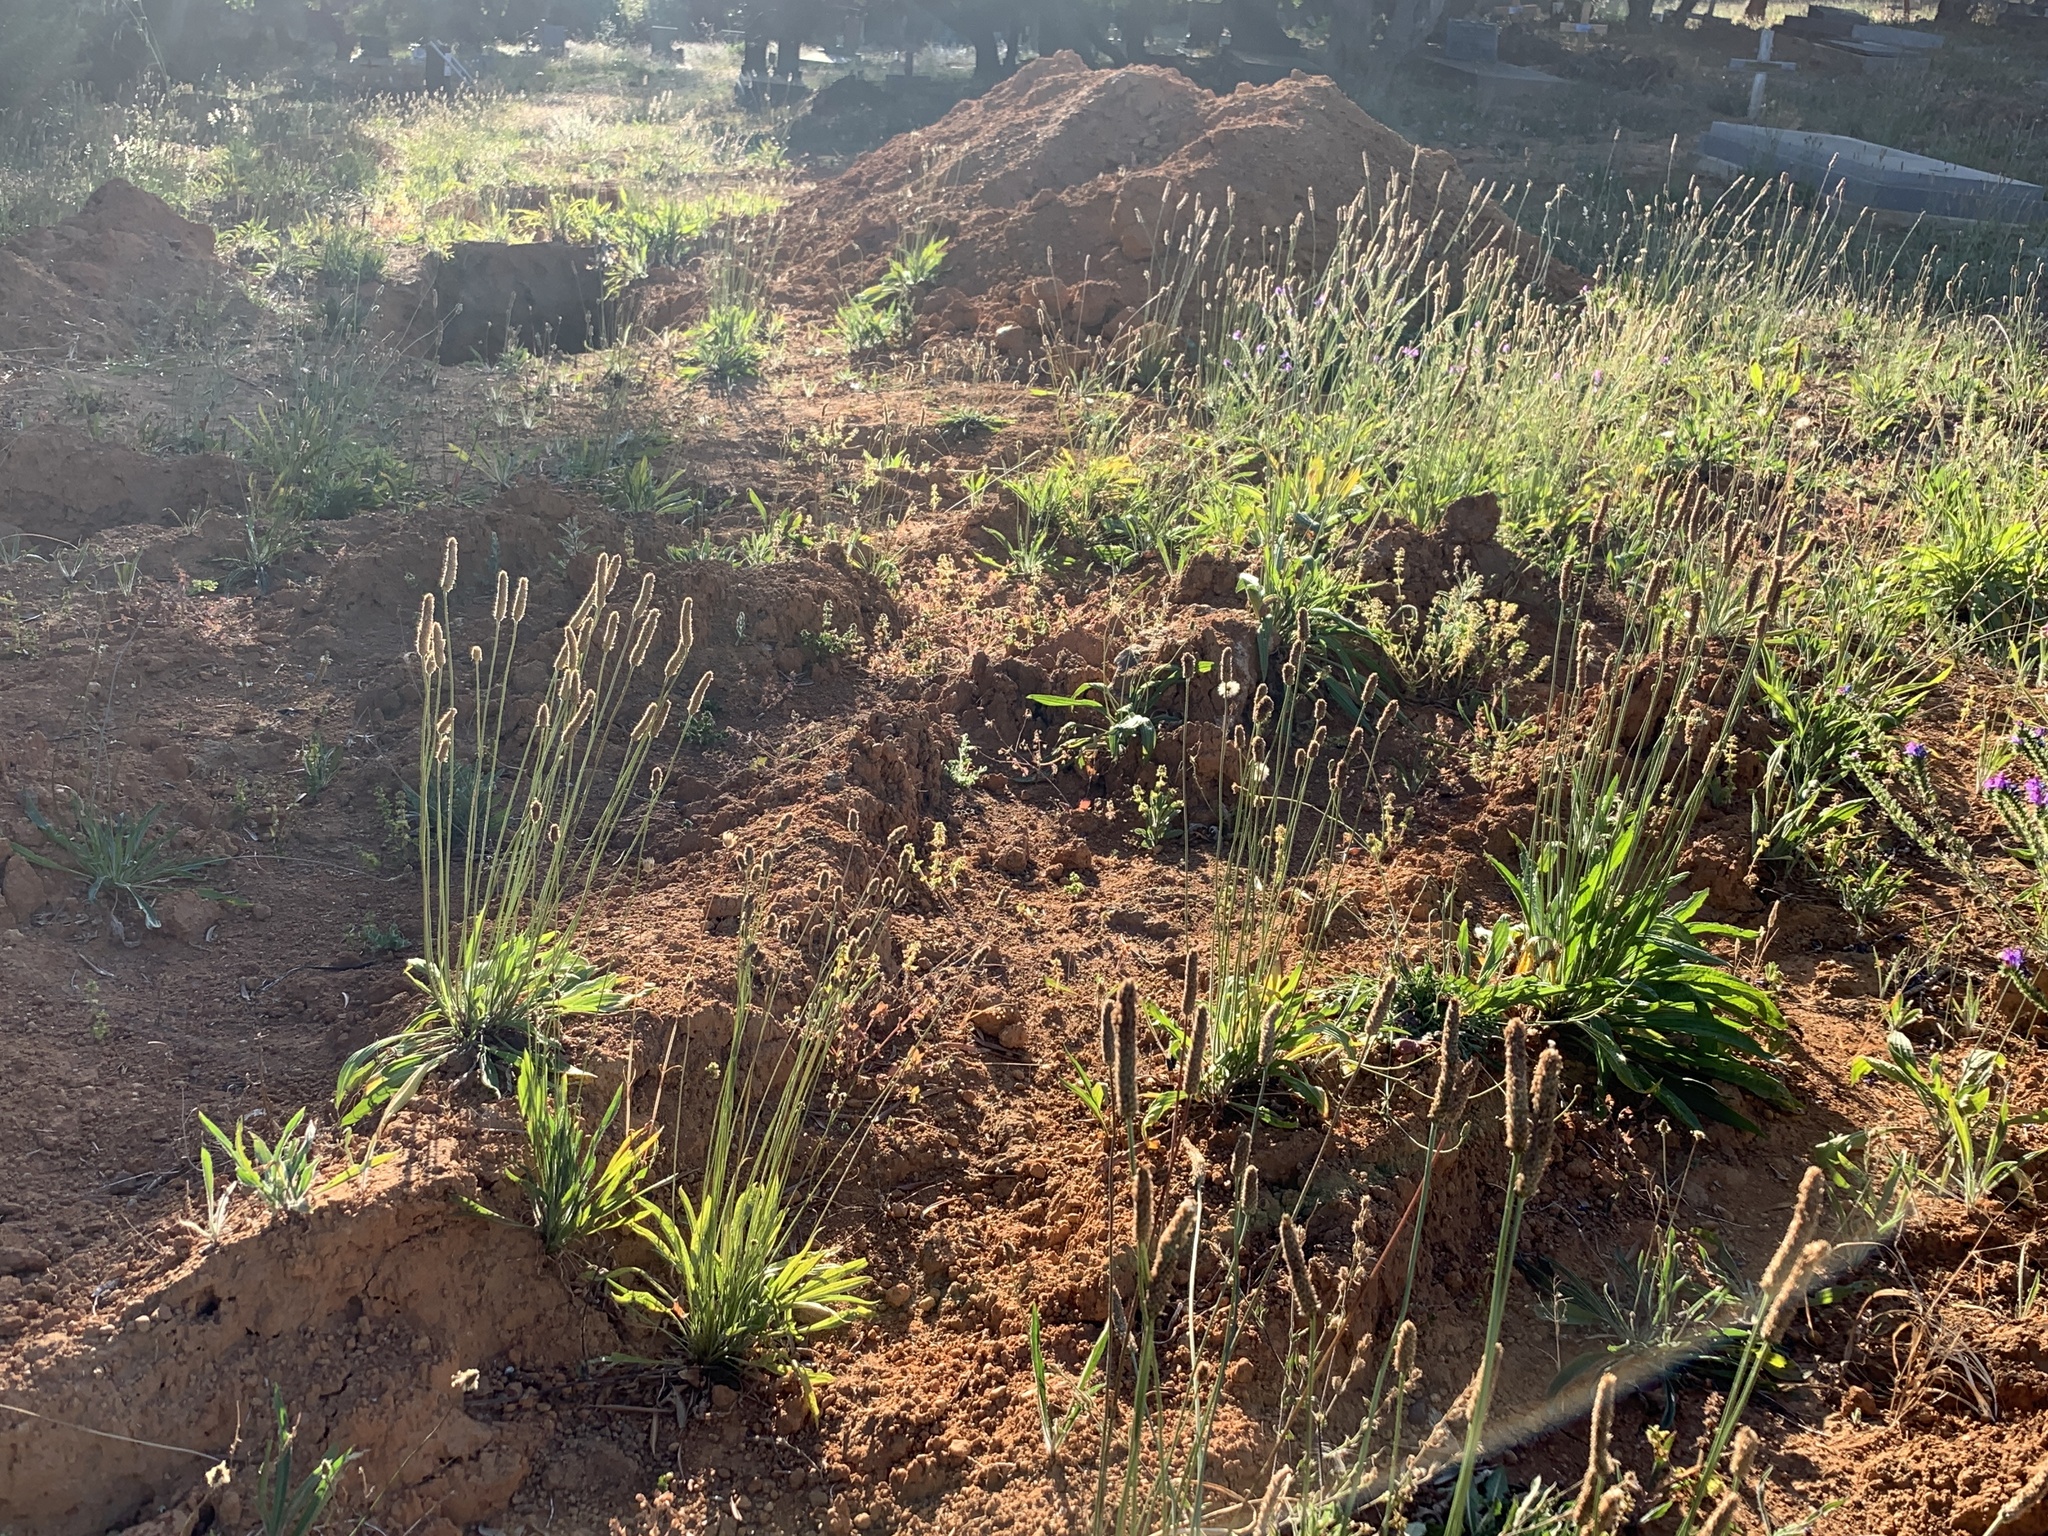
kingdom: Plantae
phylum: Tracheophyta
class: Magnoliopsida
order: Lamiales
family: Plantaginaceae
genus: Plantago
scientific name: Plantago lanceolata
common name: Ribwort plantain
